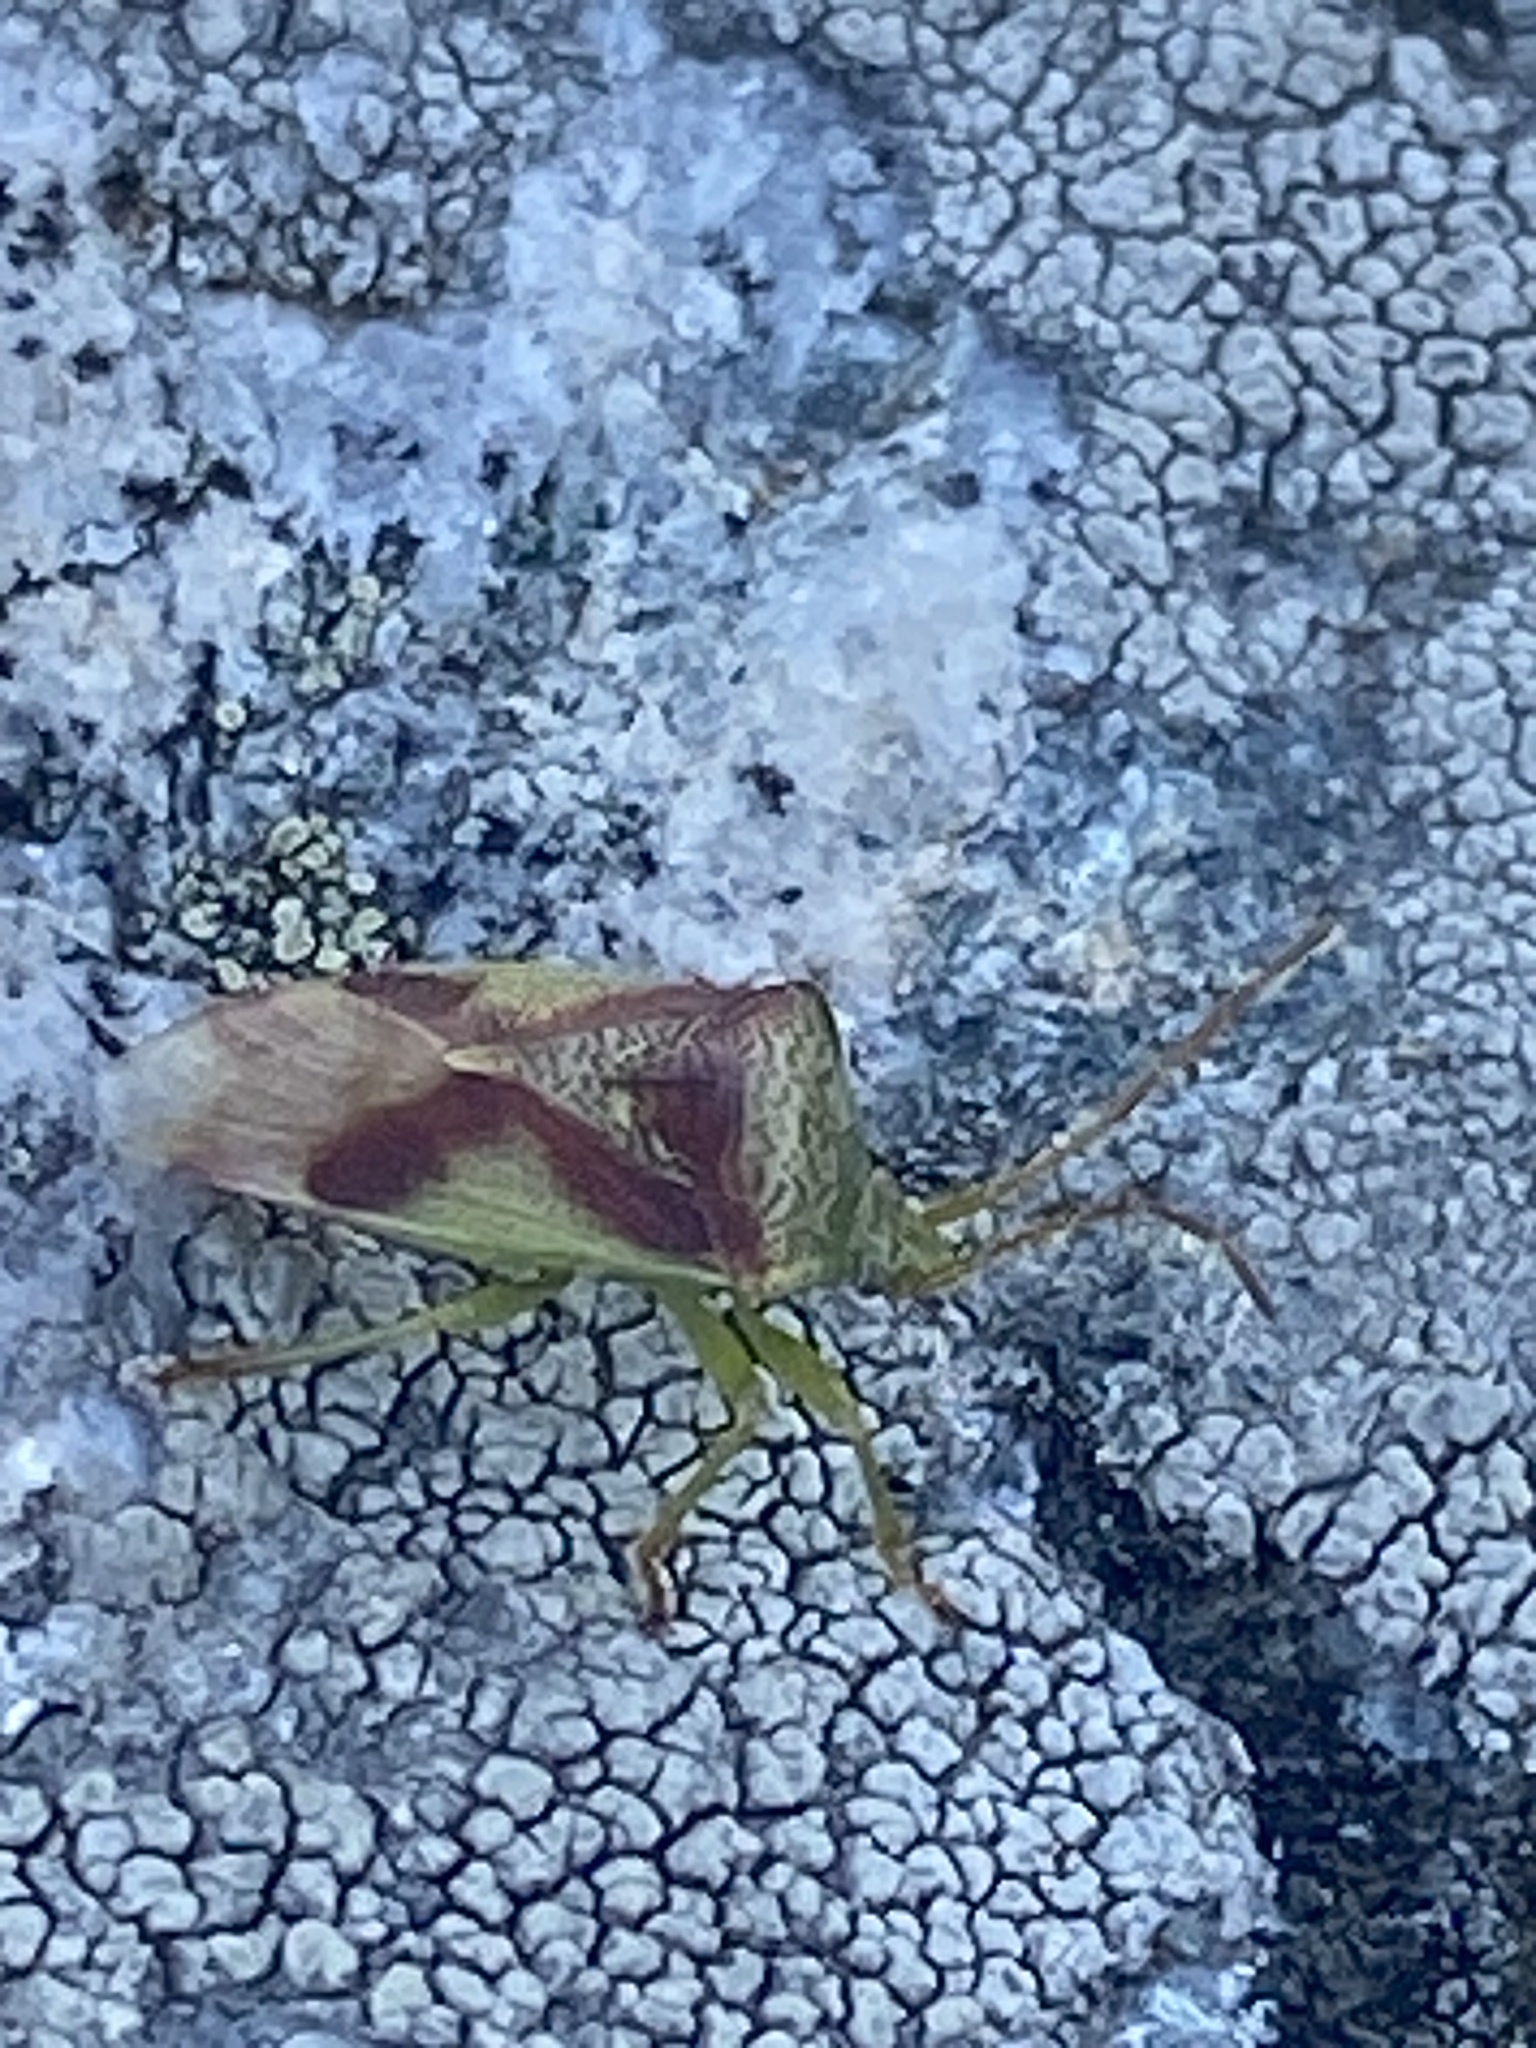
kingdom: Animalia
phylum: Arthropoda
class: Insecta
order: Hemiptera
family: Acanthosomatidae
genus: Elasmostethus
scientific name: Elasmostethus cruciatus
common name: Red-cross shield bug
